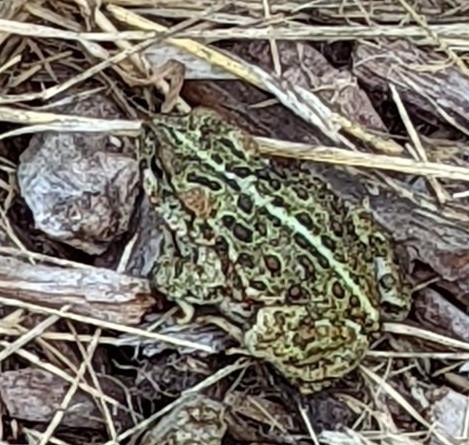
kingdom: Animalia
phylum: Chordata
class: Amphibia
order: Anura
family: Bufonidae
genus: Anaxyrus
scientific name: Anaxyrus boreas
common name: Western toad
